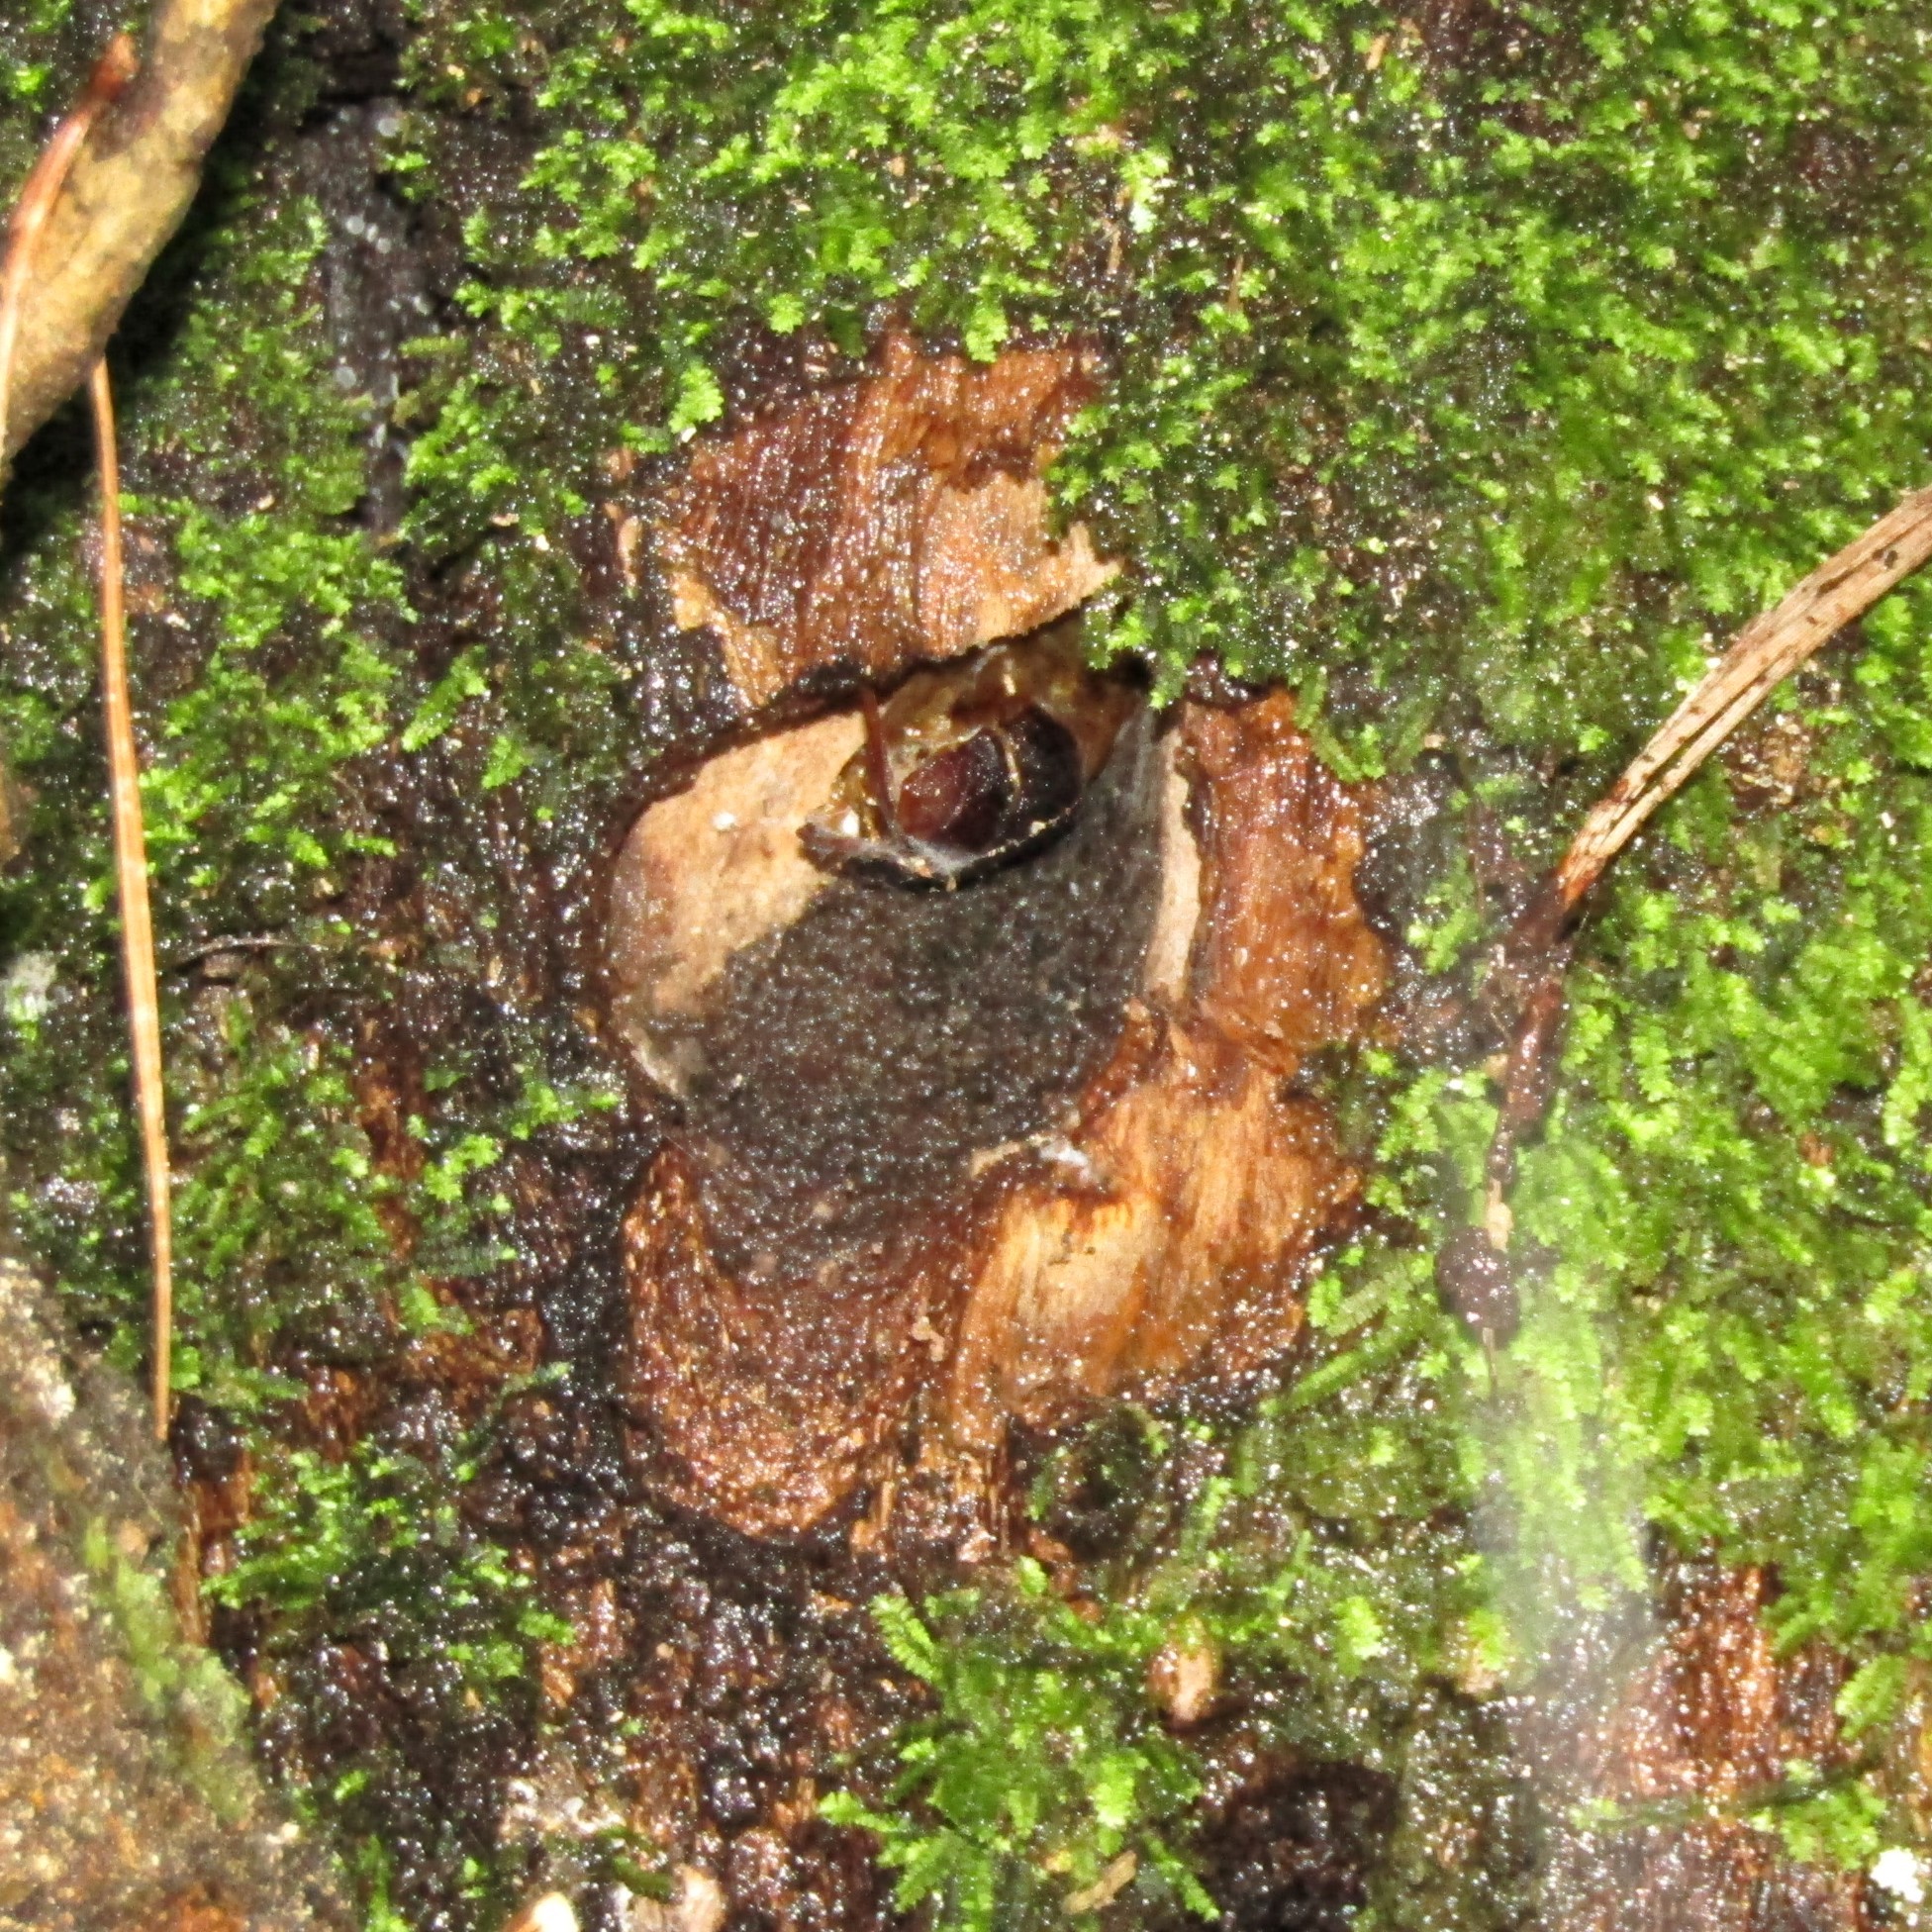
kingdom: Animalia
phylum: Arthropoda
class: Insecta
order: Lepidoptera
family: Hepialidae
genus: Aenetus
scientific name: Aenetus virescens
